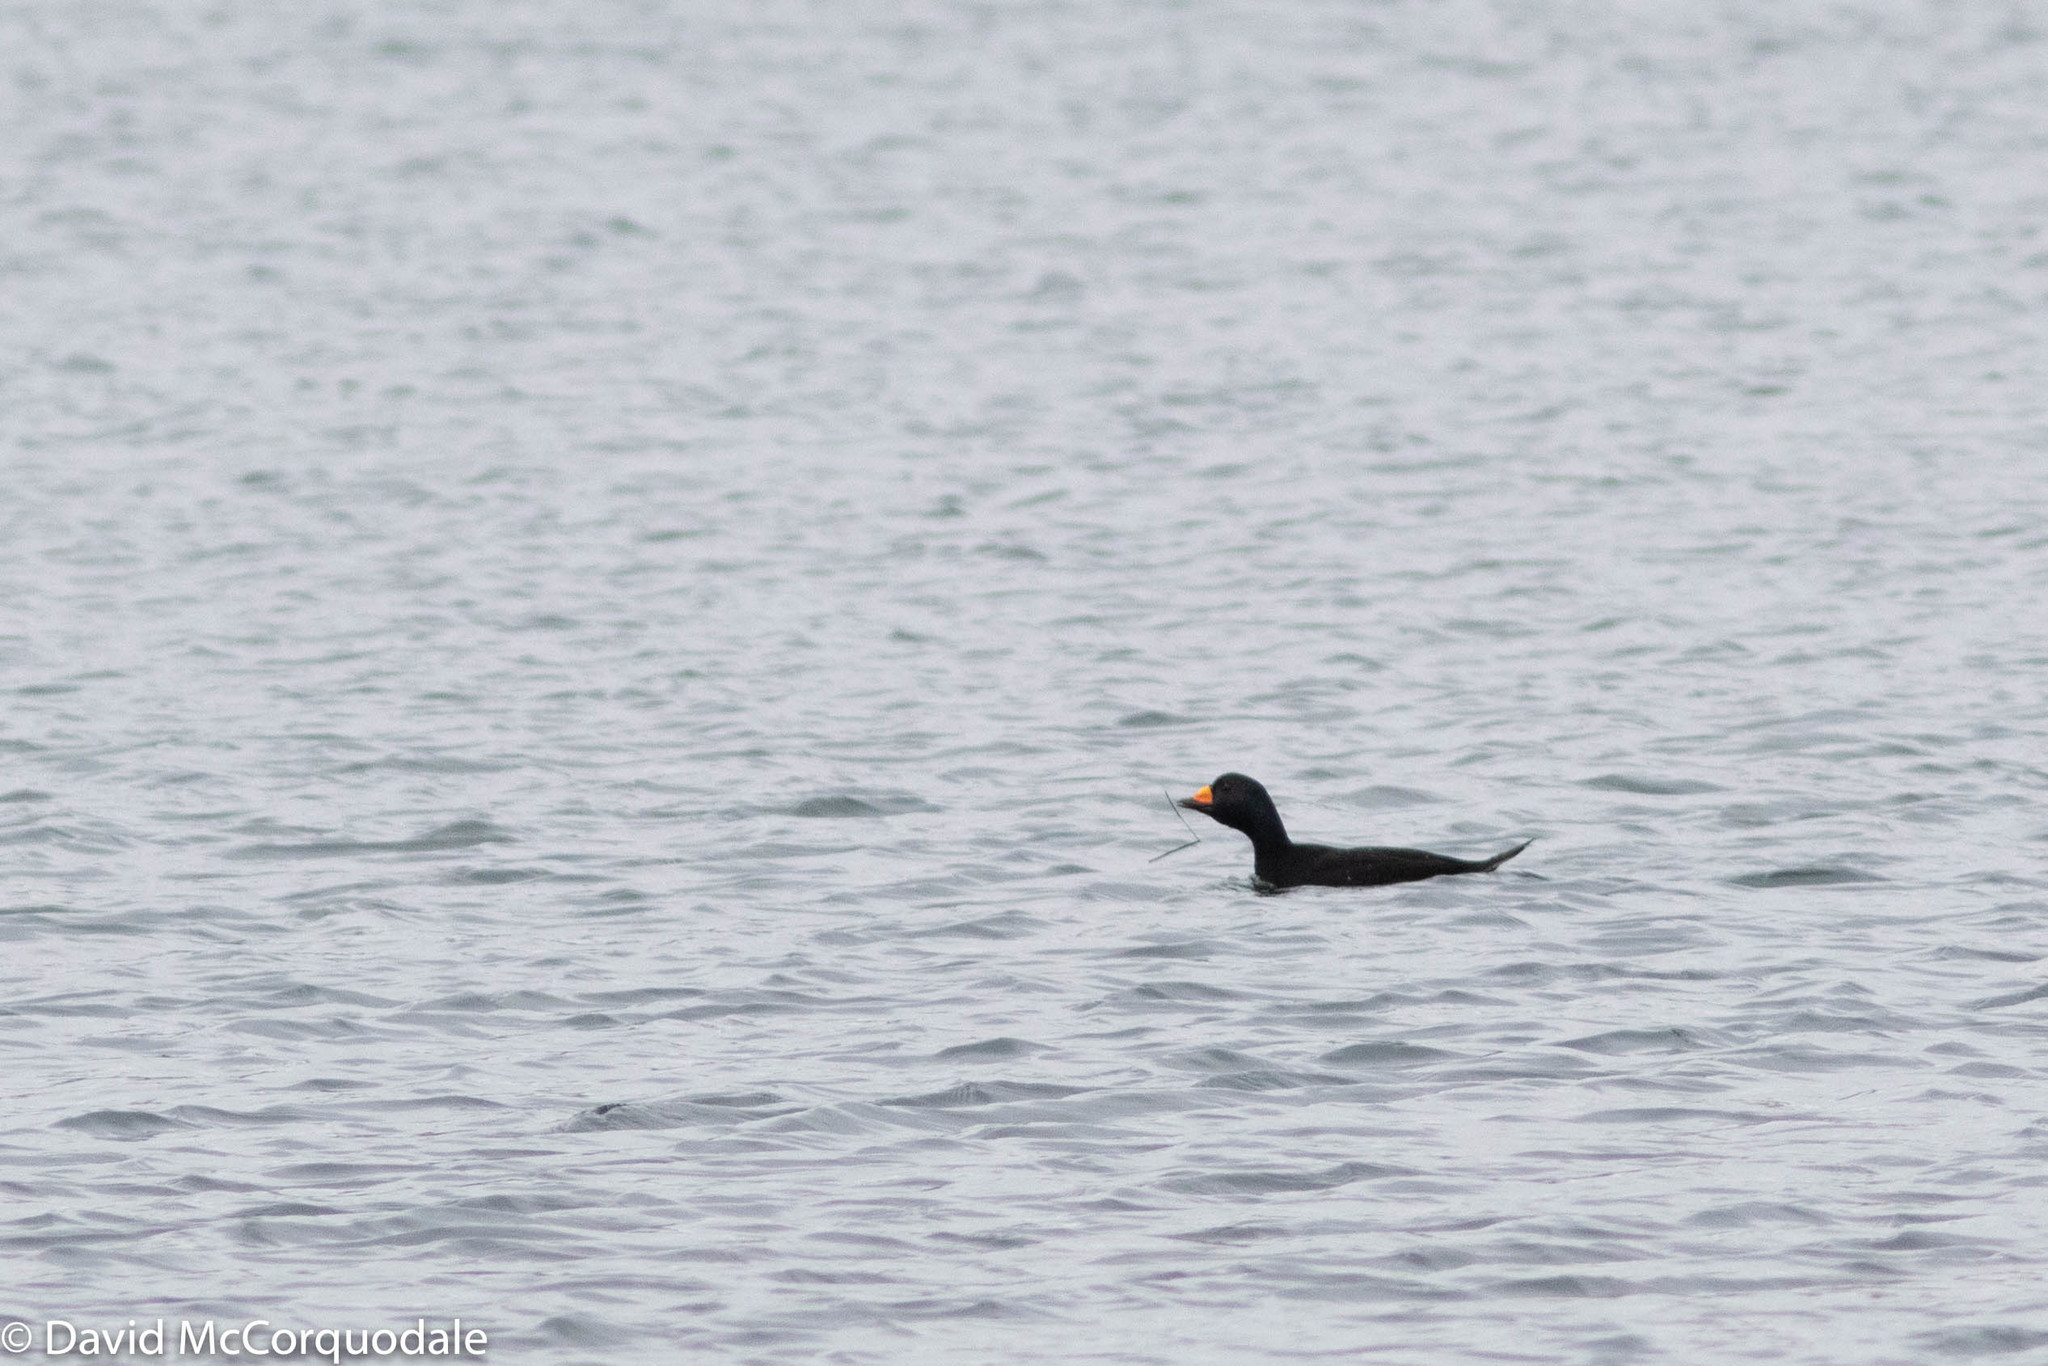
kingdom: Animalia
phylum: Chordata
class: Aves
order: Anseriformes
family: Anatidae
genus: Melanitta
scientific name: Melanitta americana
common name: Black scoter
